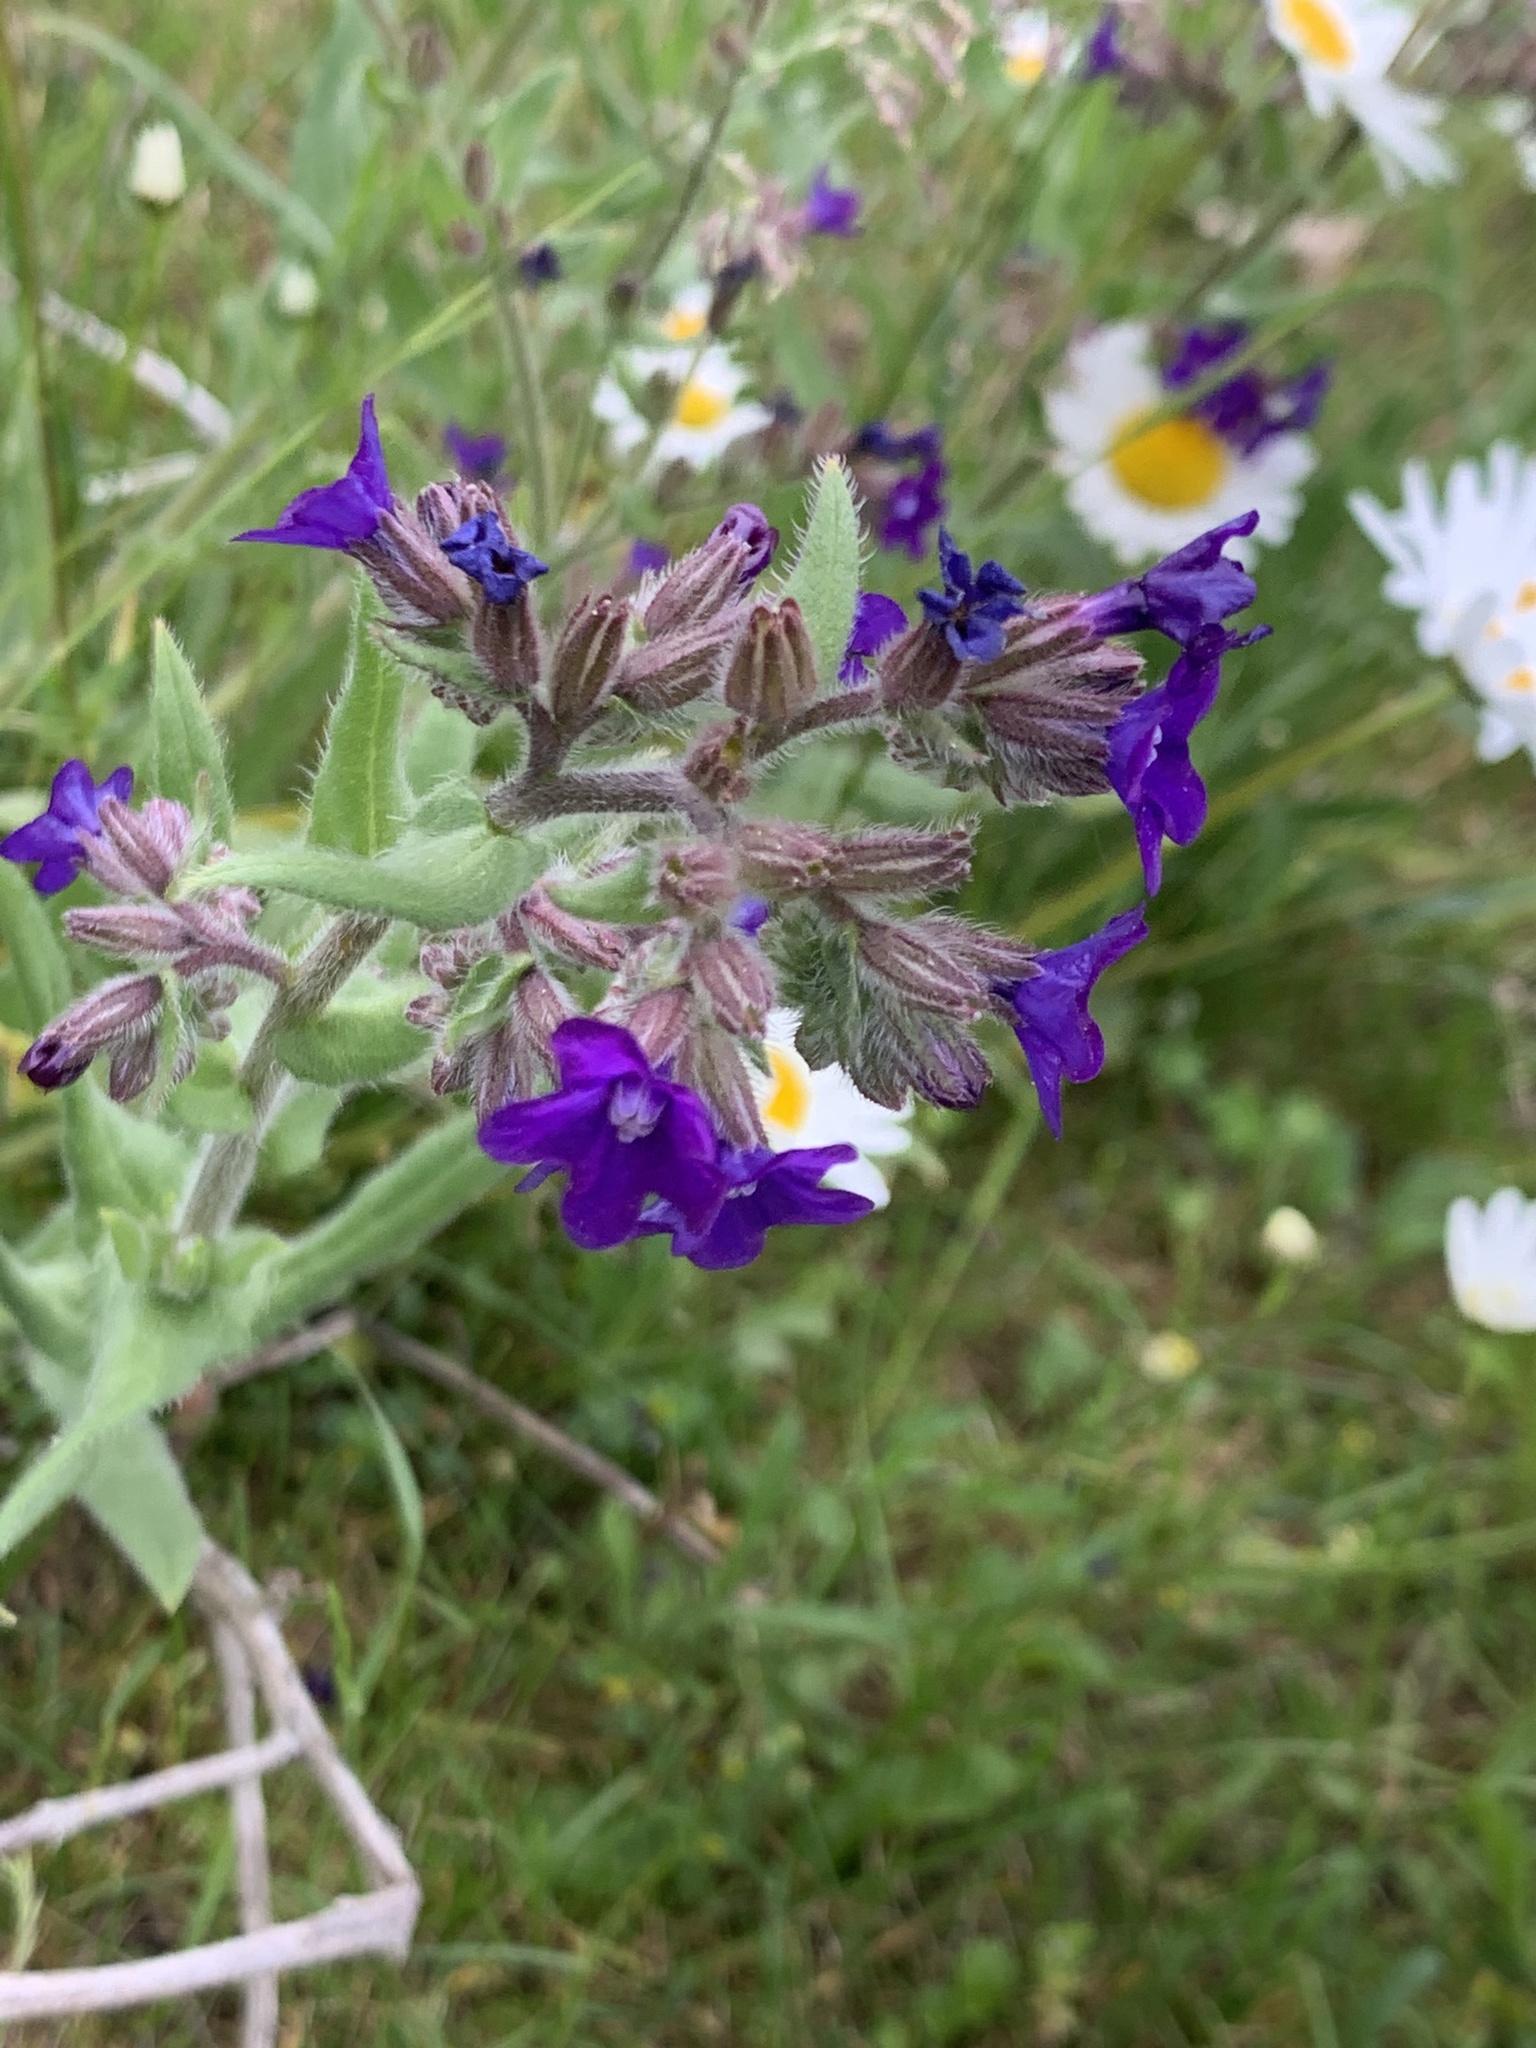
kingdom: Plantae
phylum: Tracheophyta
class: Magnoliopsida
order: Boraginales
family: Boraginaceae
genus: Anchusa
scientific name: Anchusa officinalis
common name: Alkanet
